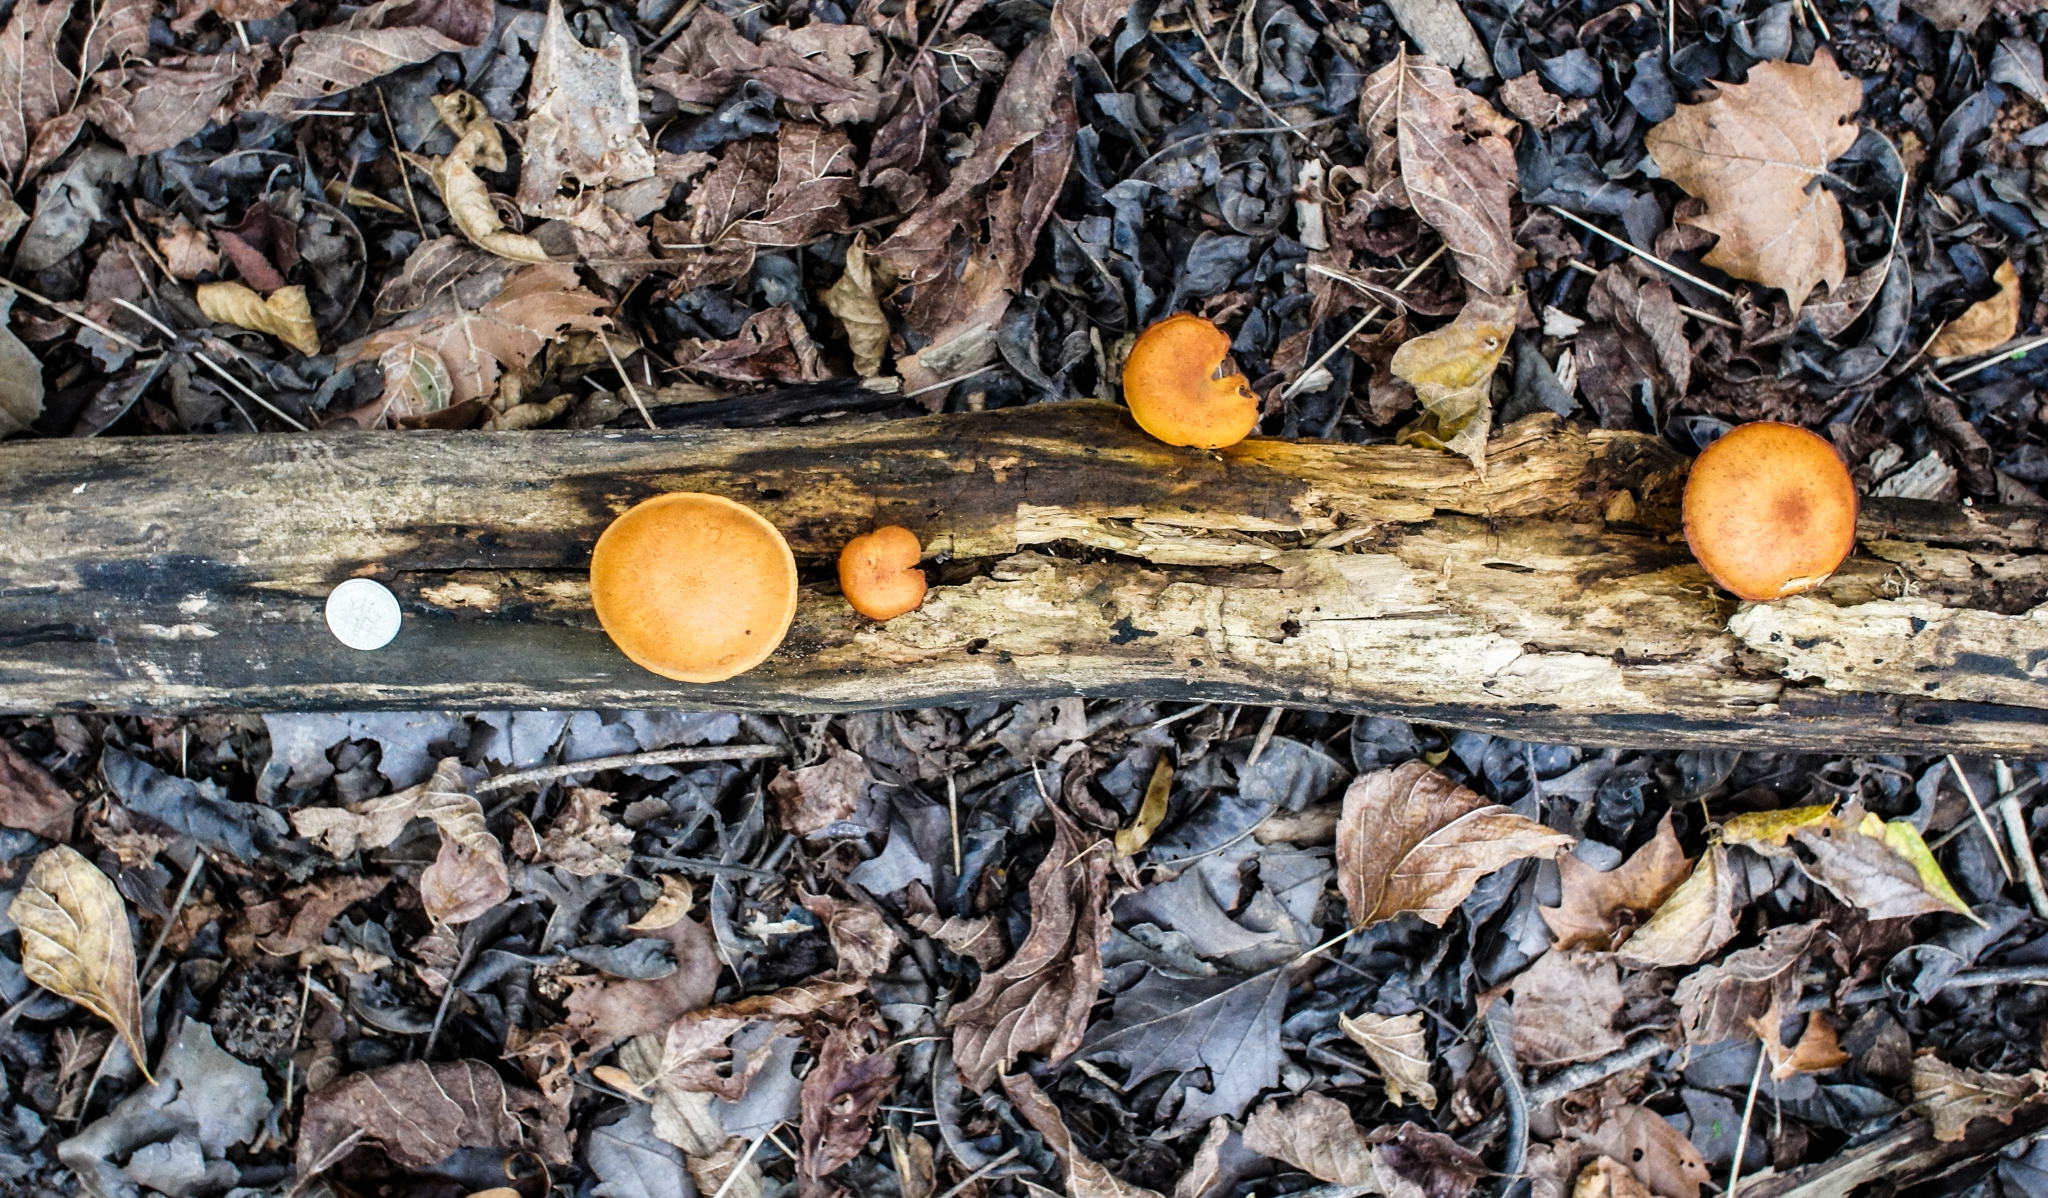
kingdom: Fungi
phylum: Basidiomycota
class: Agaricomycetes
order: Agaricales
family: Hymenogastraceae
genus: Gymnopilus
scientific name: Gymnopilus liquiritiae
